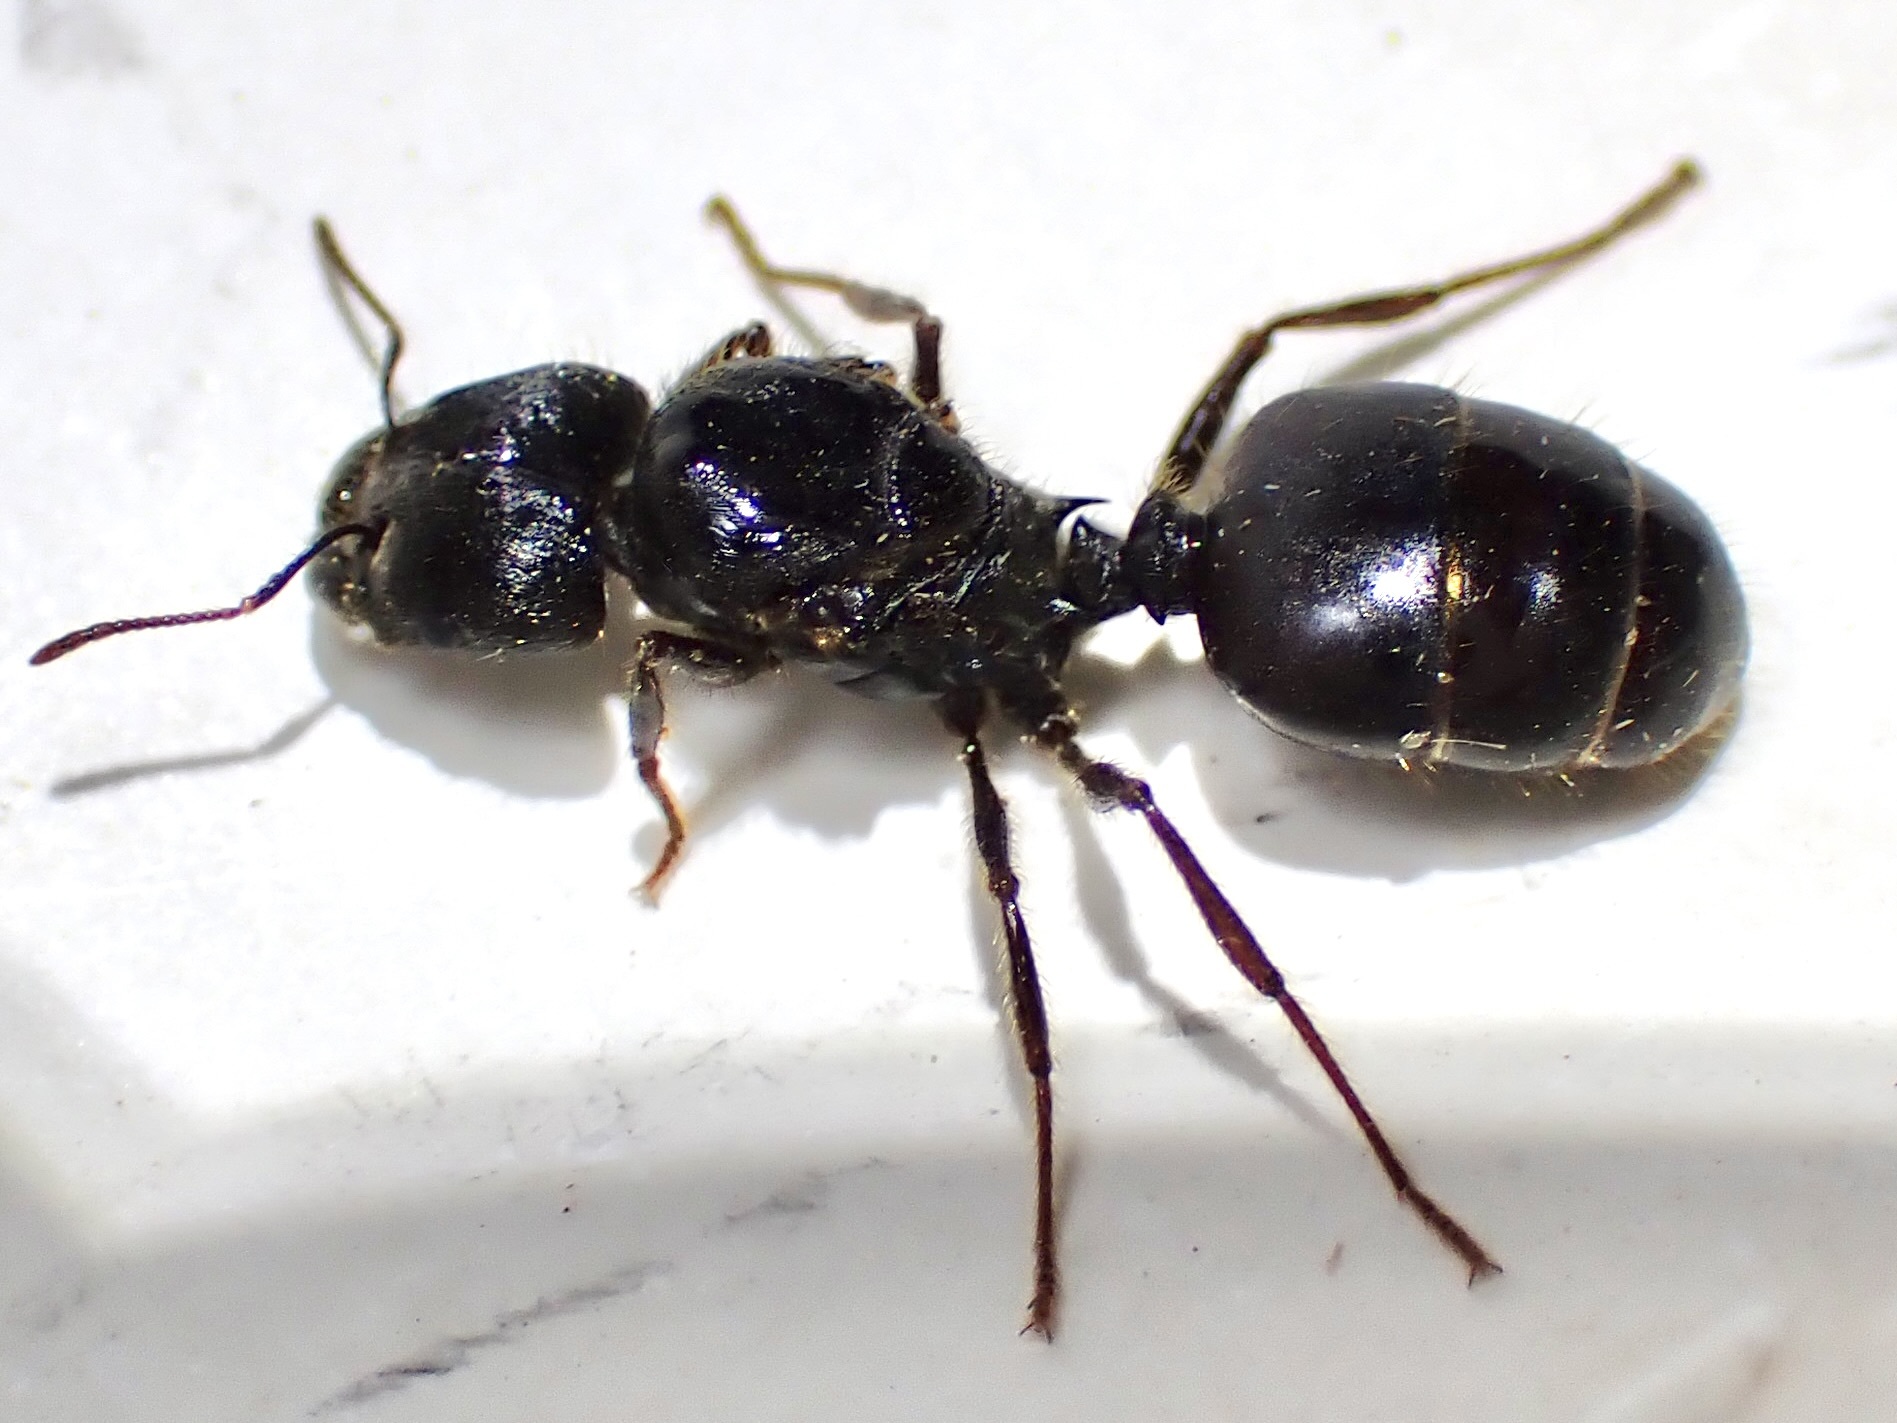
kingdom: Animalia
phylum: Arthropoda
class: Insecta
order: Hymenoptera
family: Formicidae
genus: Pheidole
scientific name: Pheidole rhea
